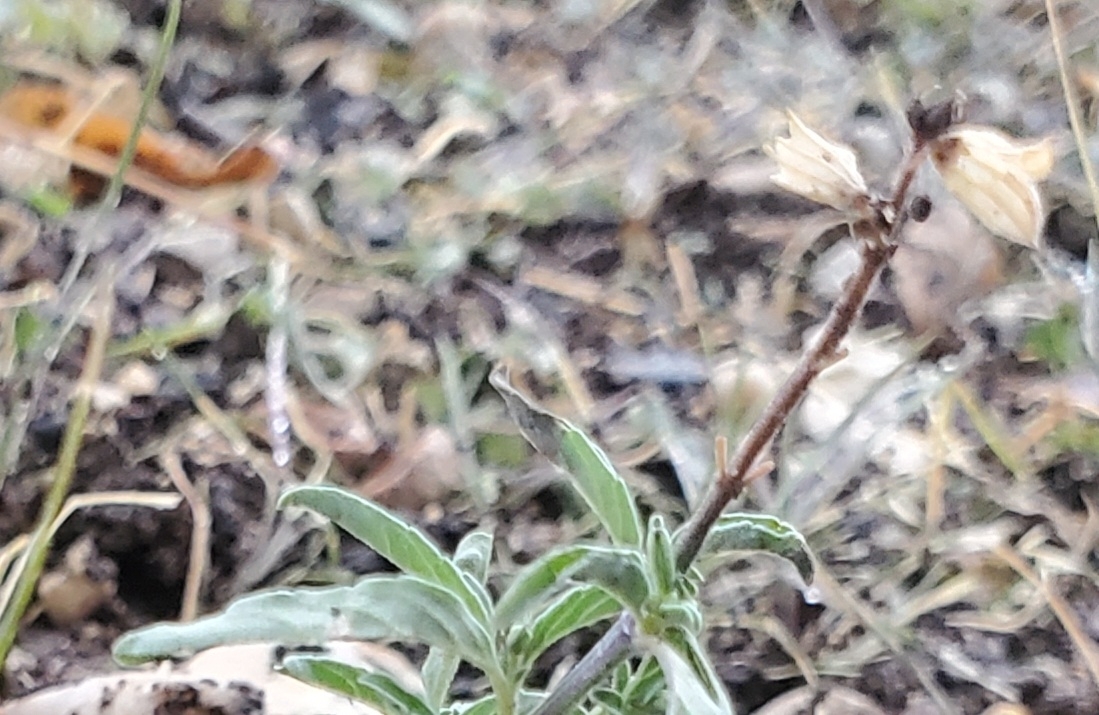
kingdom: Plantae
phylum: Tracheophyta
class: Magnoliopsida
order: Lamiales
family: Lamiaceae
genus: Salvia
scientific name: Salvia reflexa
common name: Mintweed
